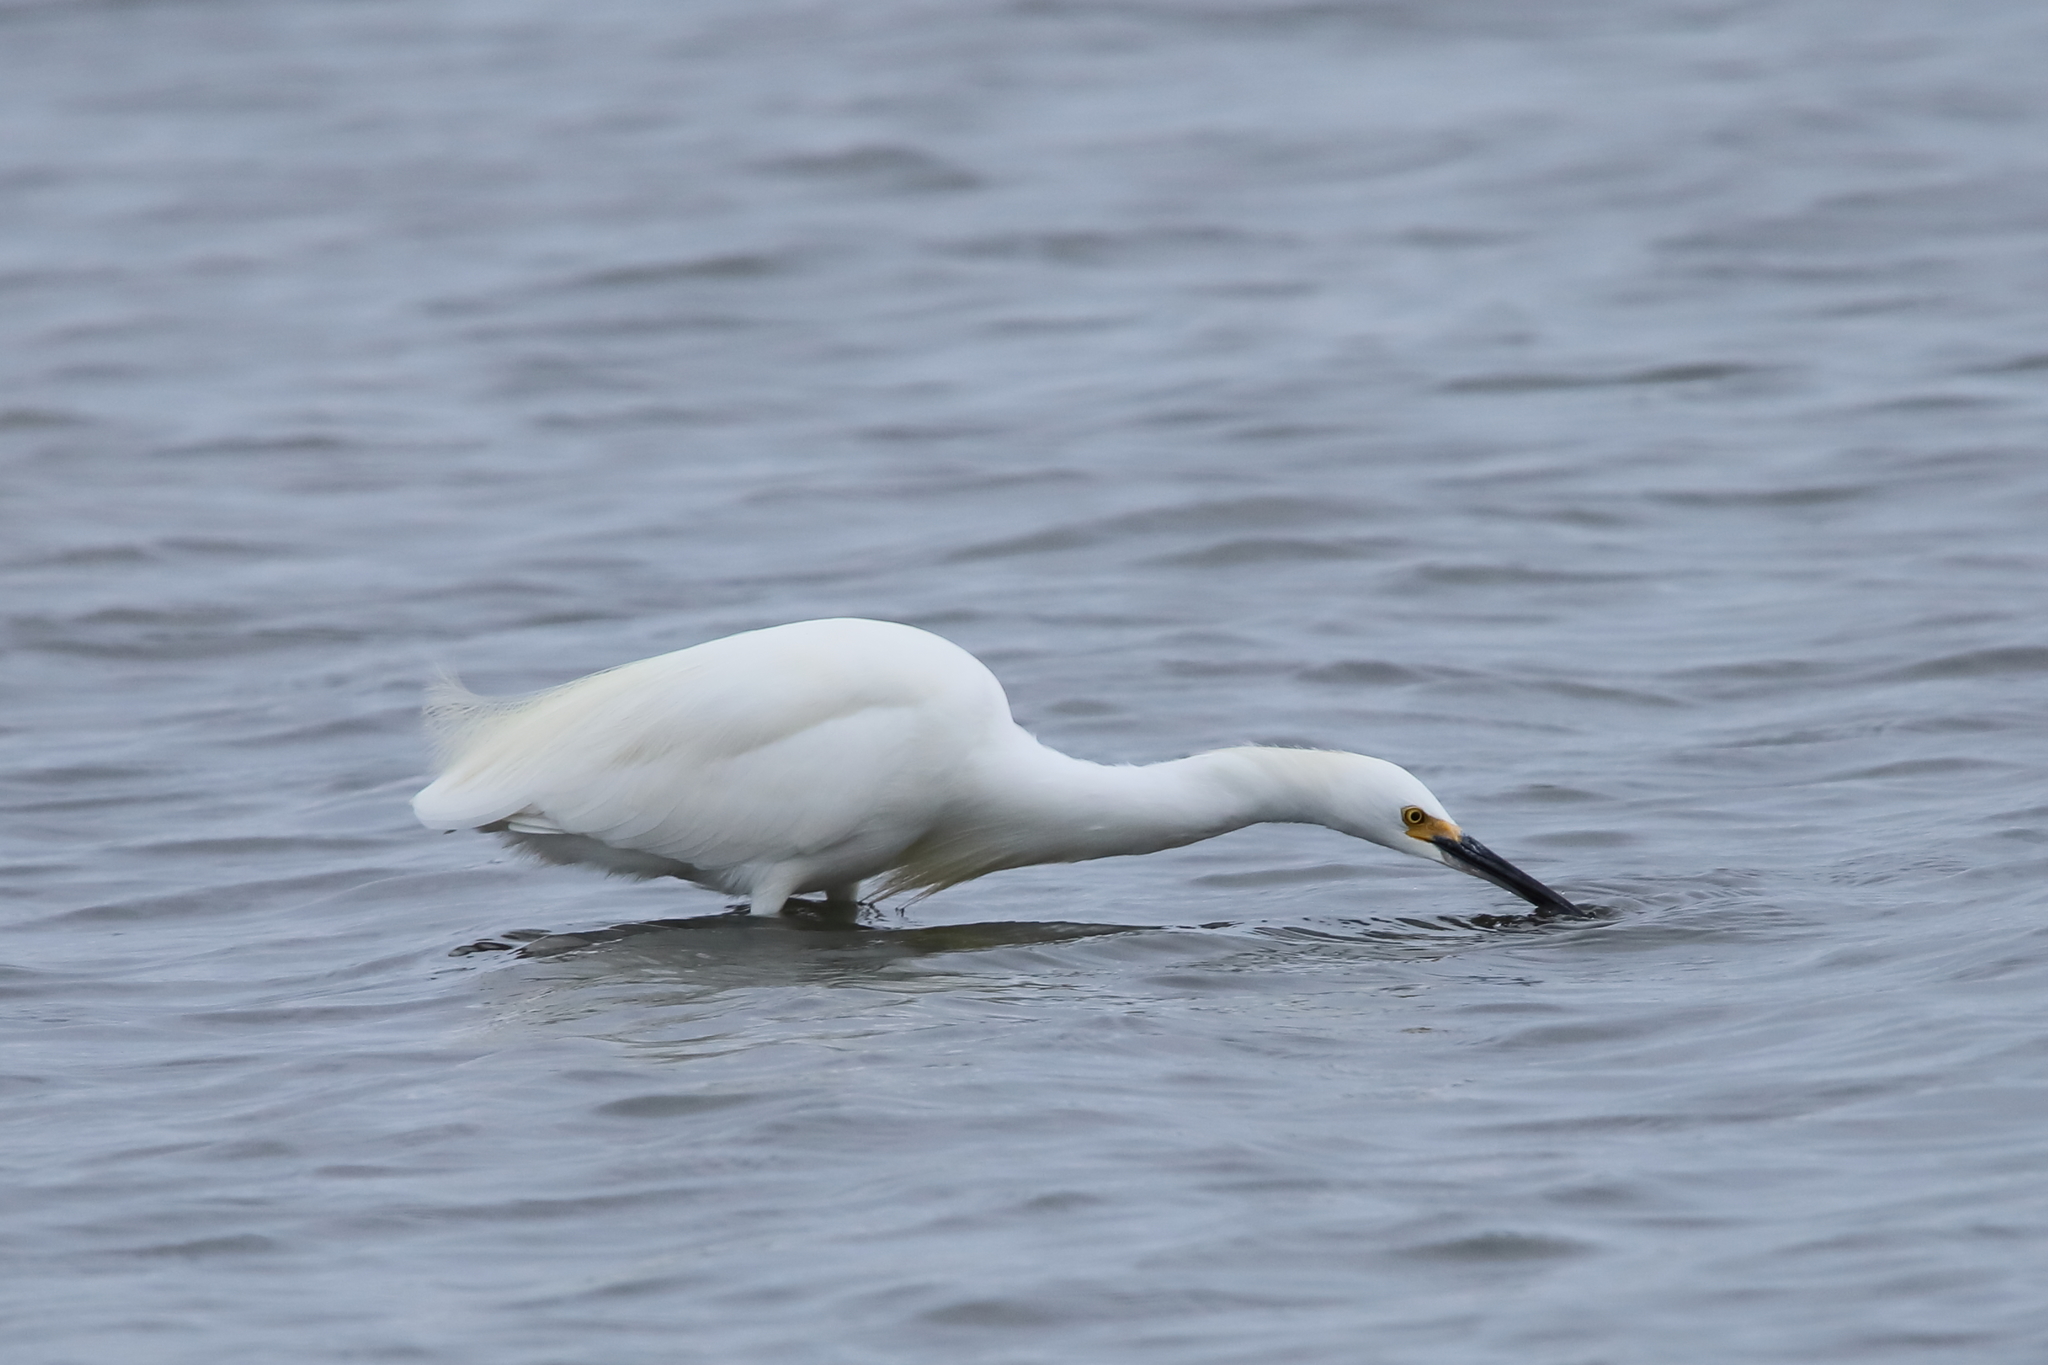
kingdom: Animalia
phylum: Chordata
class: Aves
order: Pelecaniformes
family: Ardeidae
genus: Egretta
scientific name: Egretta thula
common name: Snowy egret
